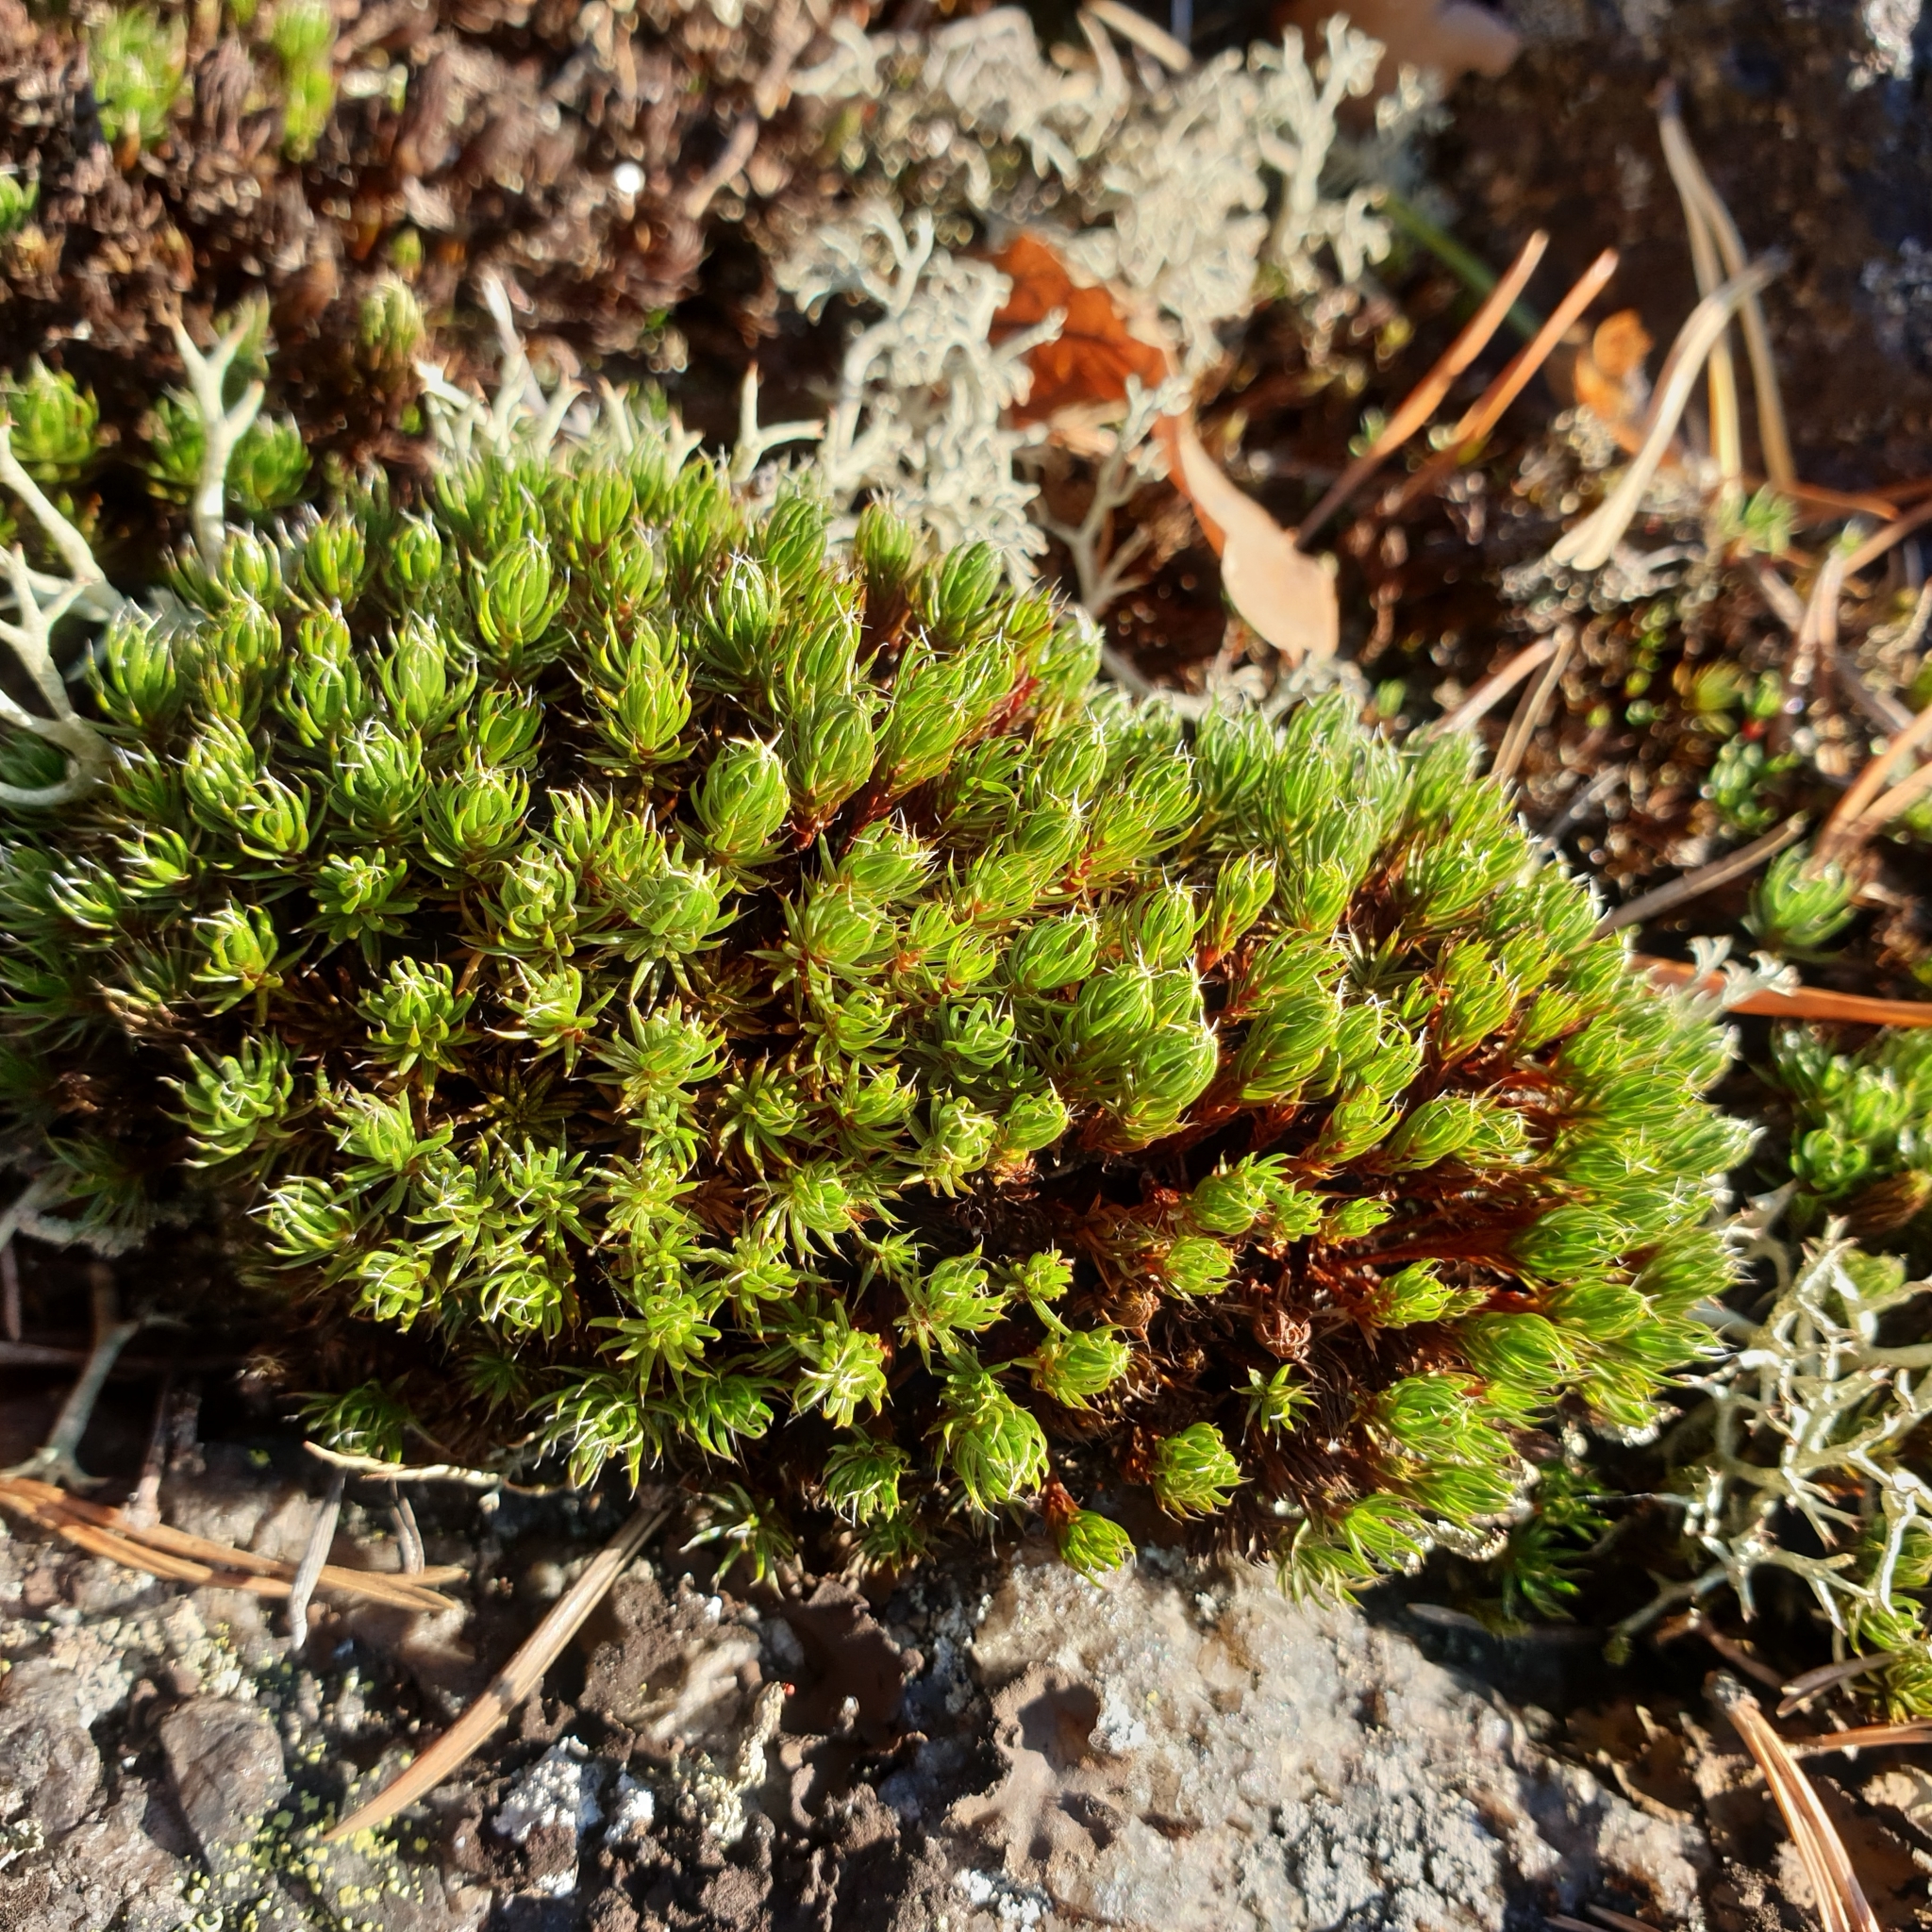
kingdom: Plantae
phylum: Bryophyta
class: Polytrichopsida
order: Polytrichales
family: Polytrichaceae
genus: Polytrichum
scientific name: Polytrichum piliferum
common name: Bristly haircap
